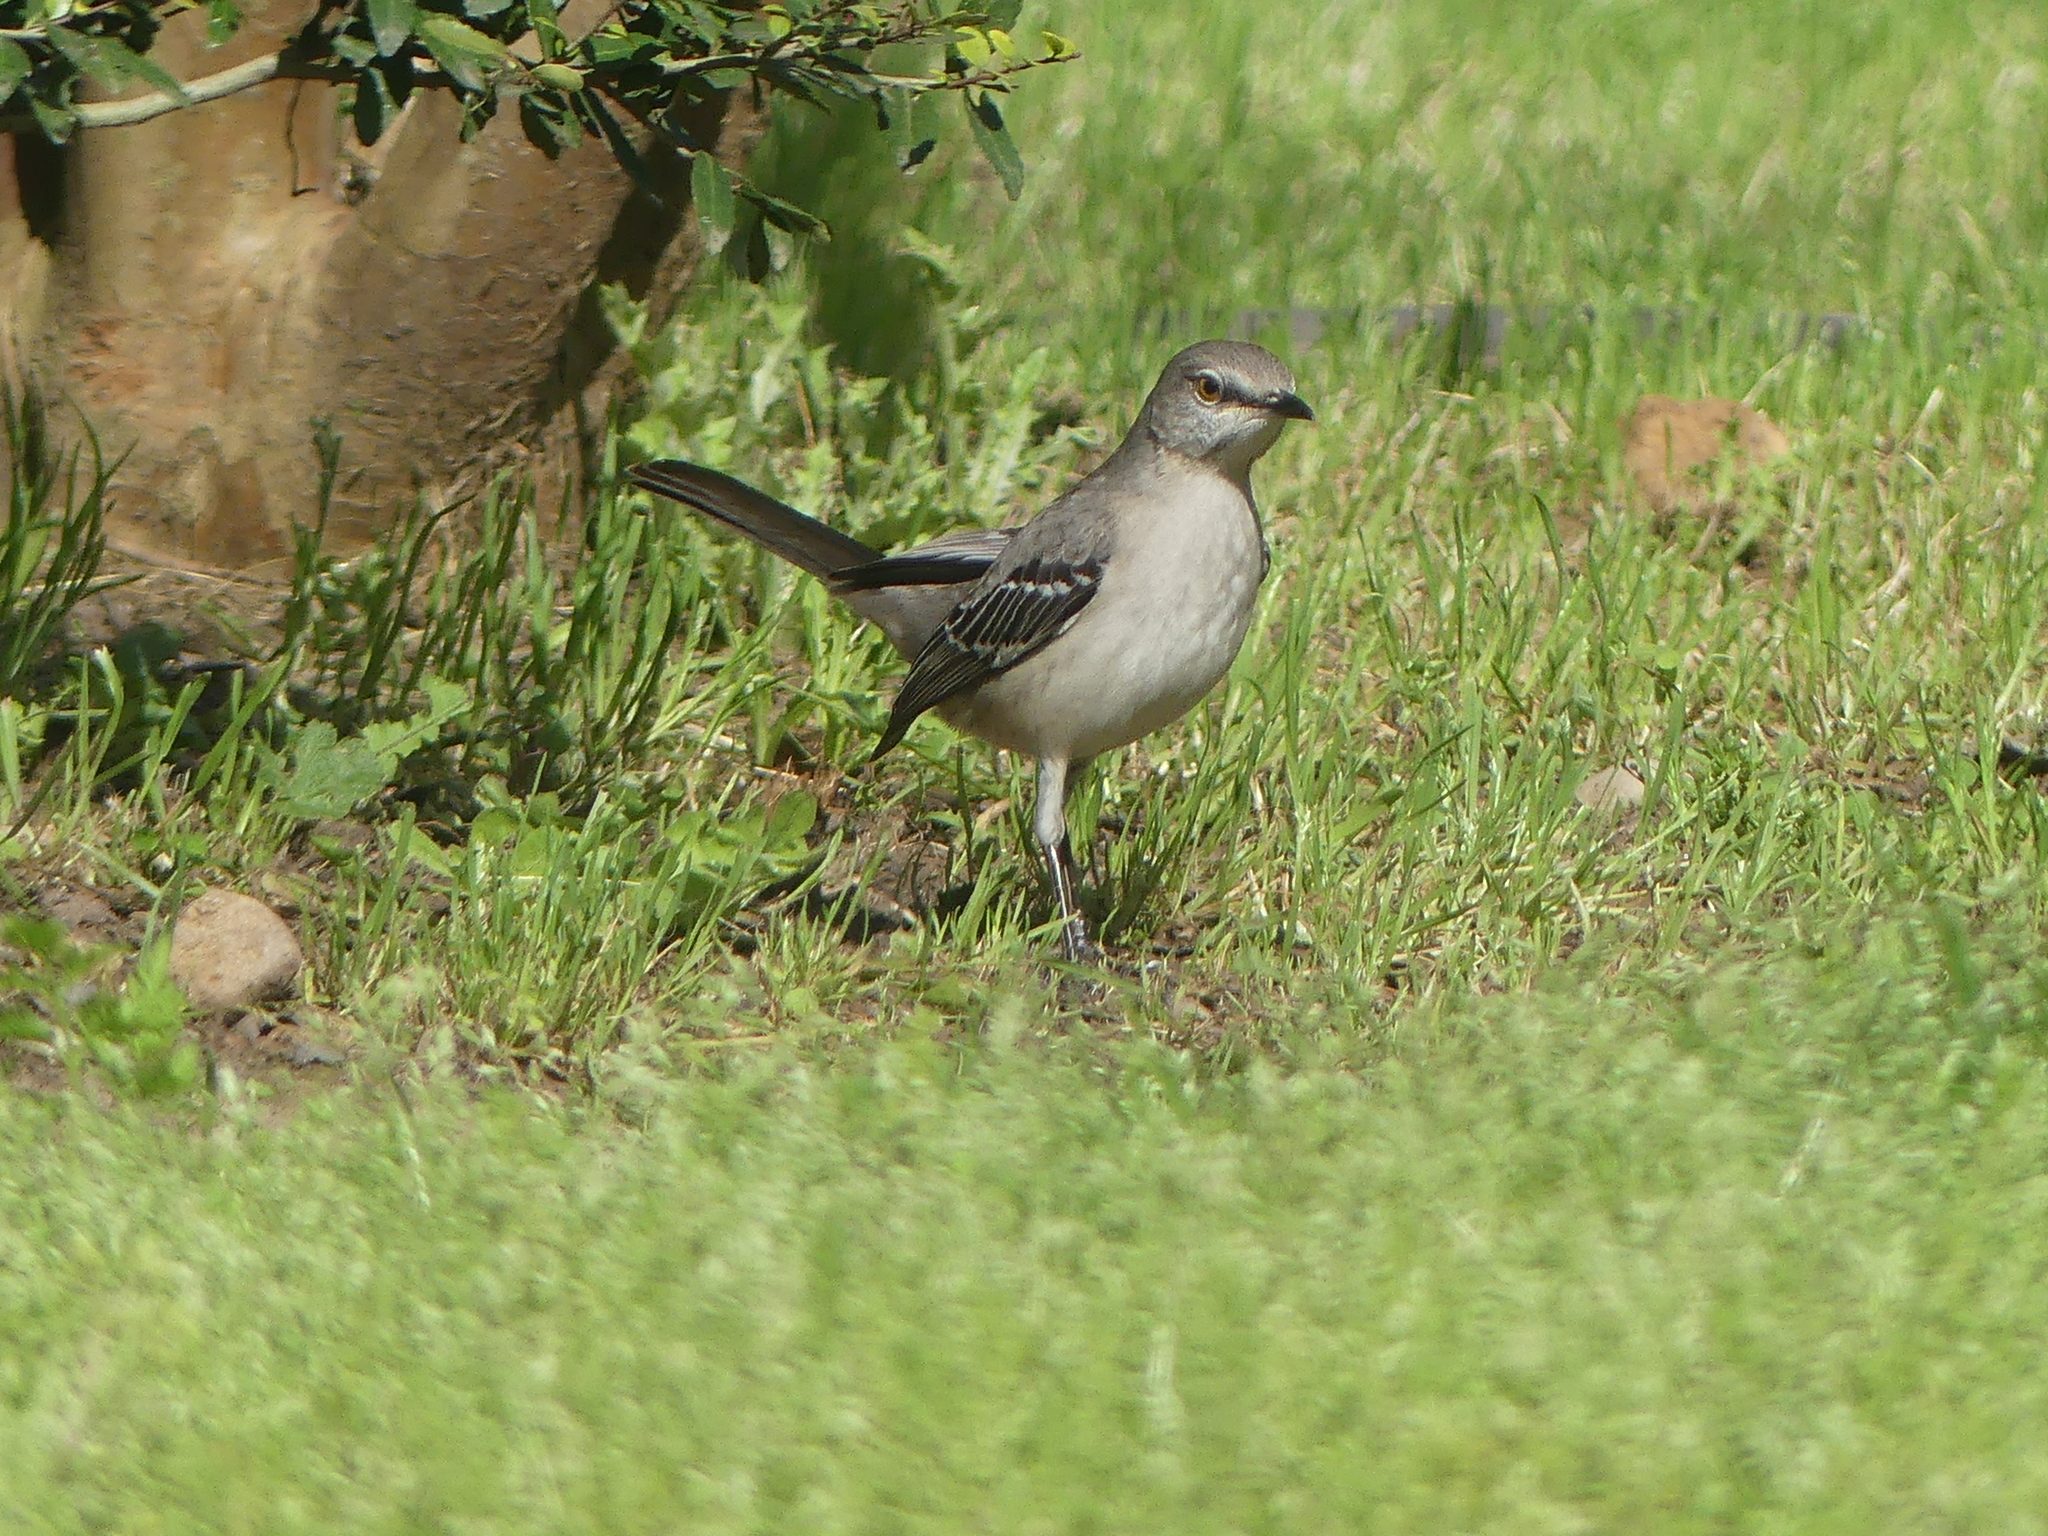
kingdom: Animalia
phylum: Chordata
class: Aves
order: Passeriformes
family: Mimidae
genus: Mimus
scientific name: Mimus polyglottos
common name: Northern mockingbird
